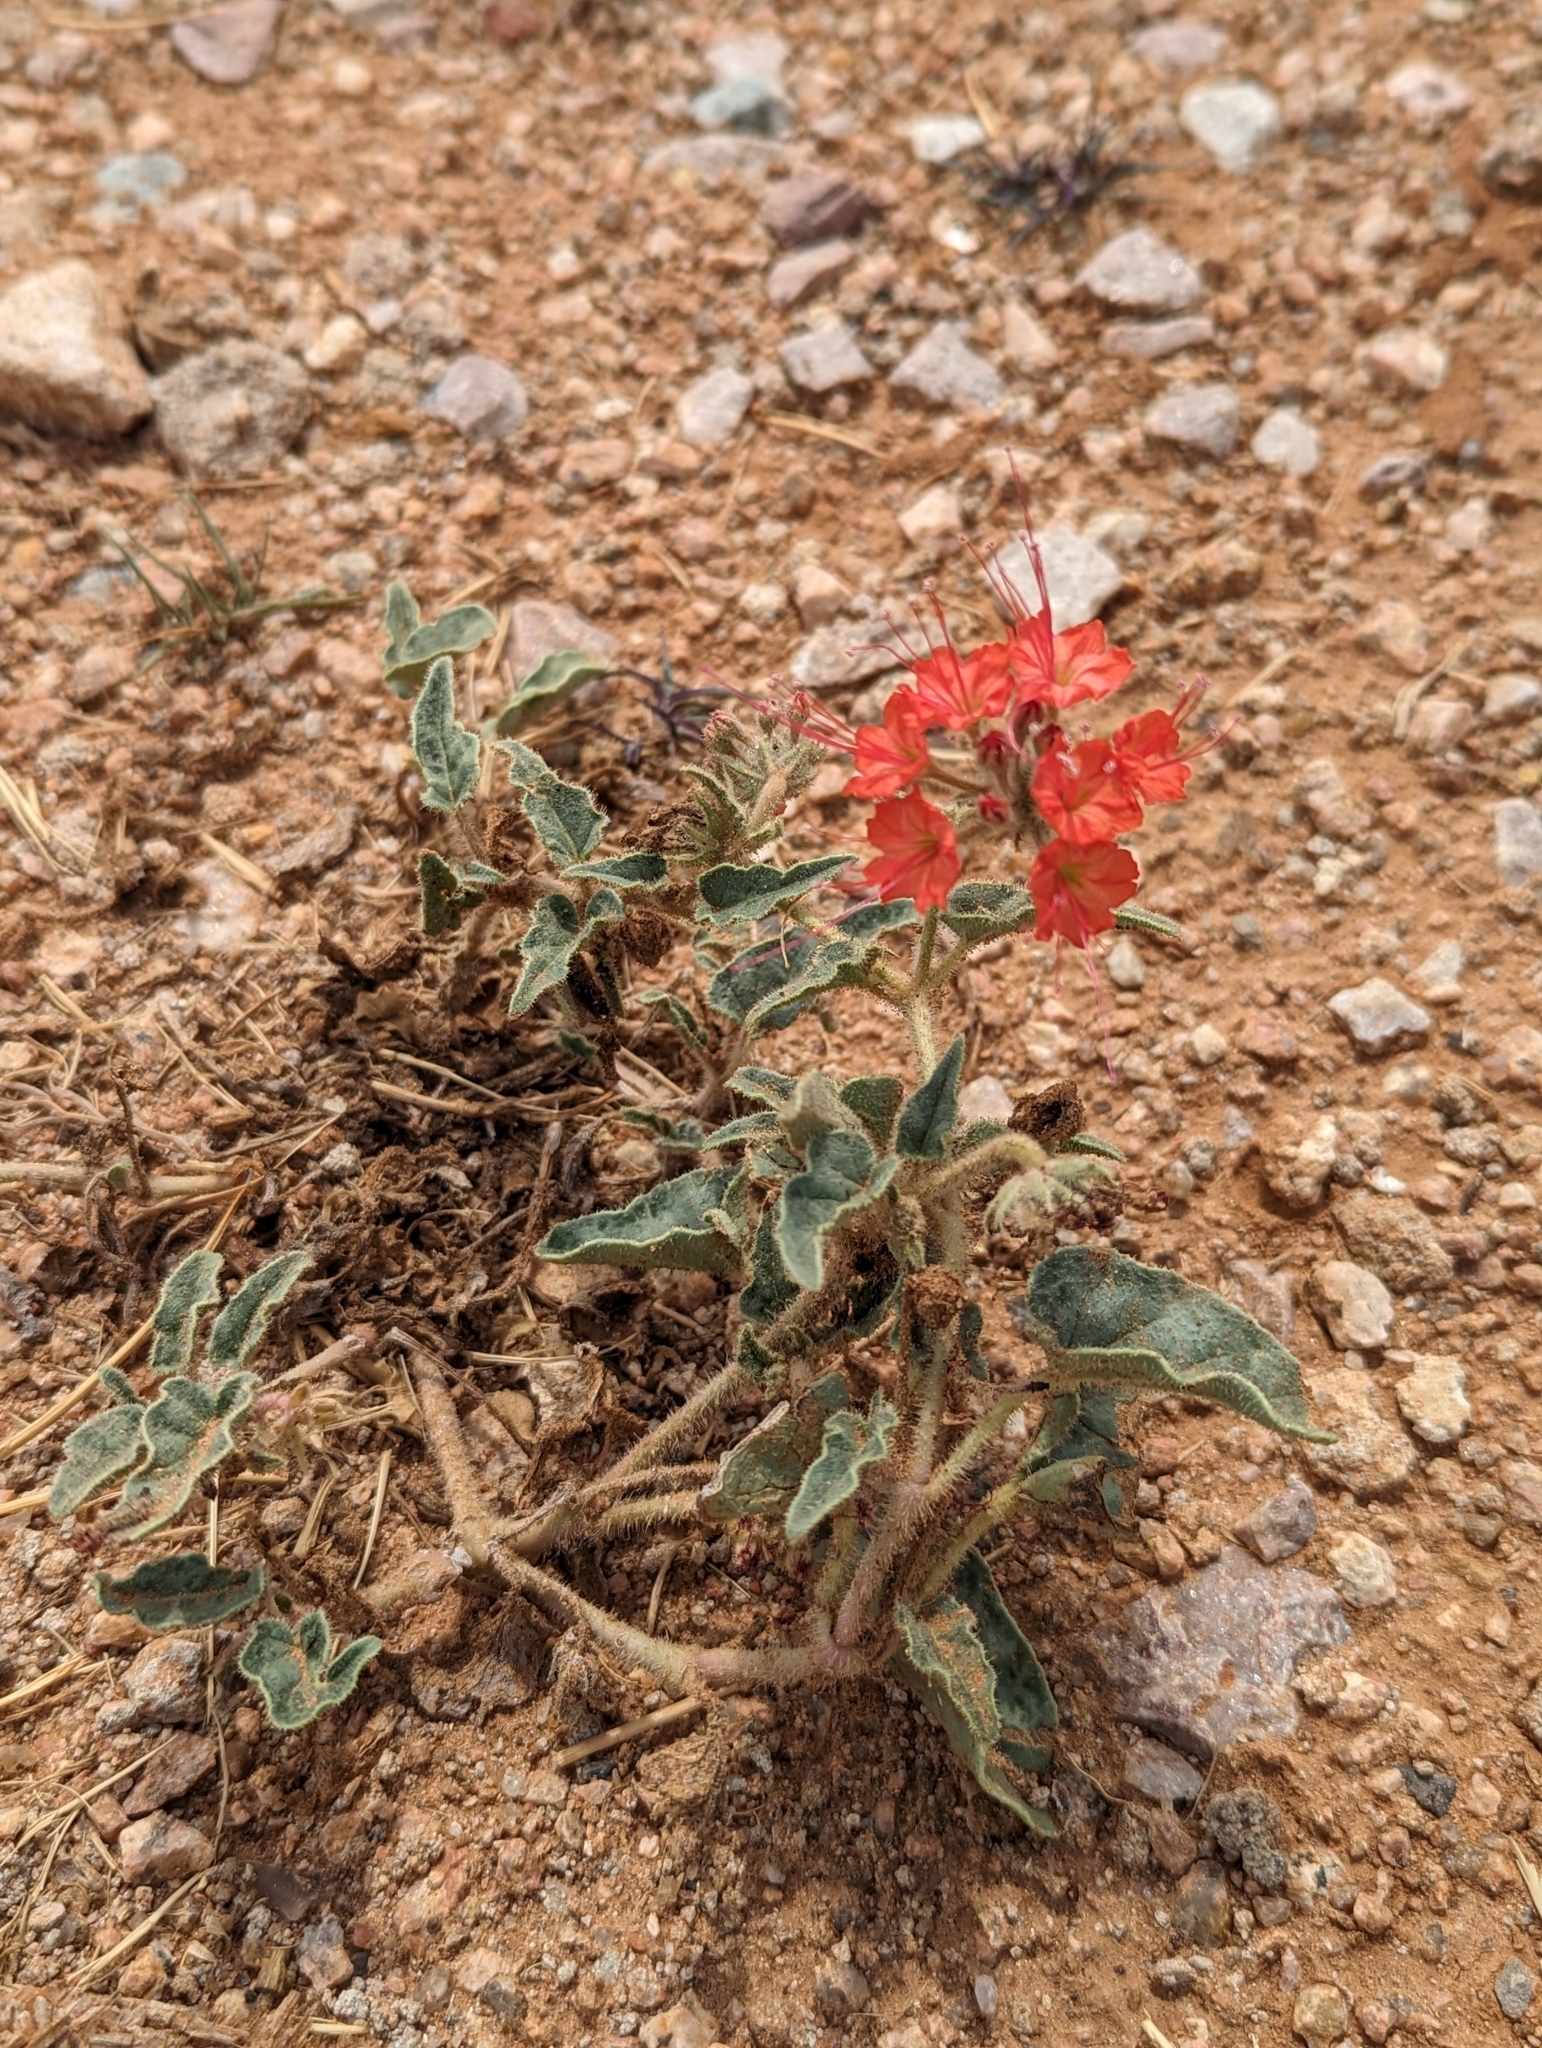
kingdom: Plantae
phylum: Tracheophyta
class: Magnoliopsida
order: Caryophyllales
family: Nyctaginaceae
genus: Nyctaginia
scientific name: Nyctaginia capitata
